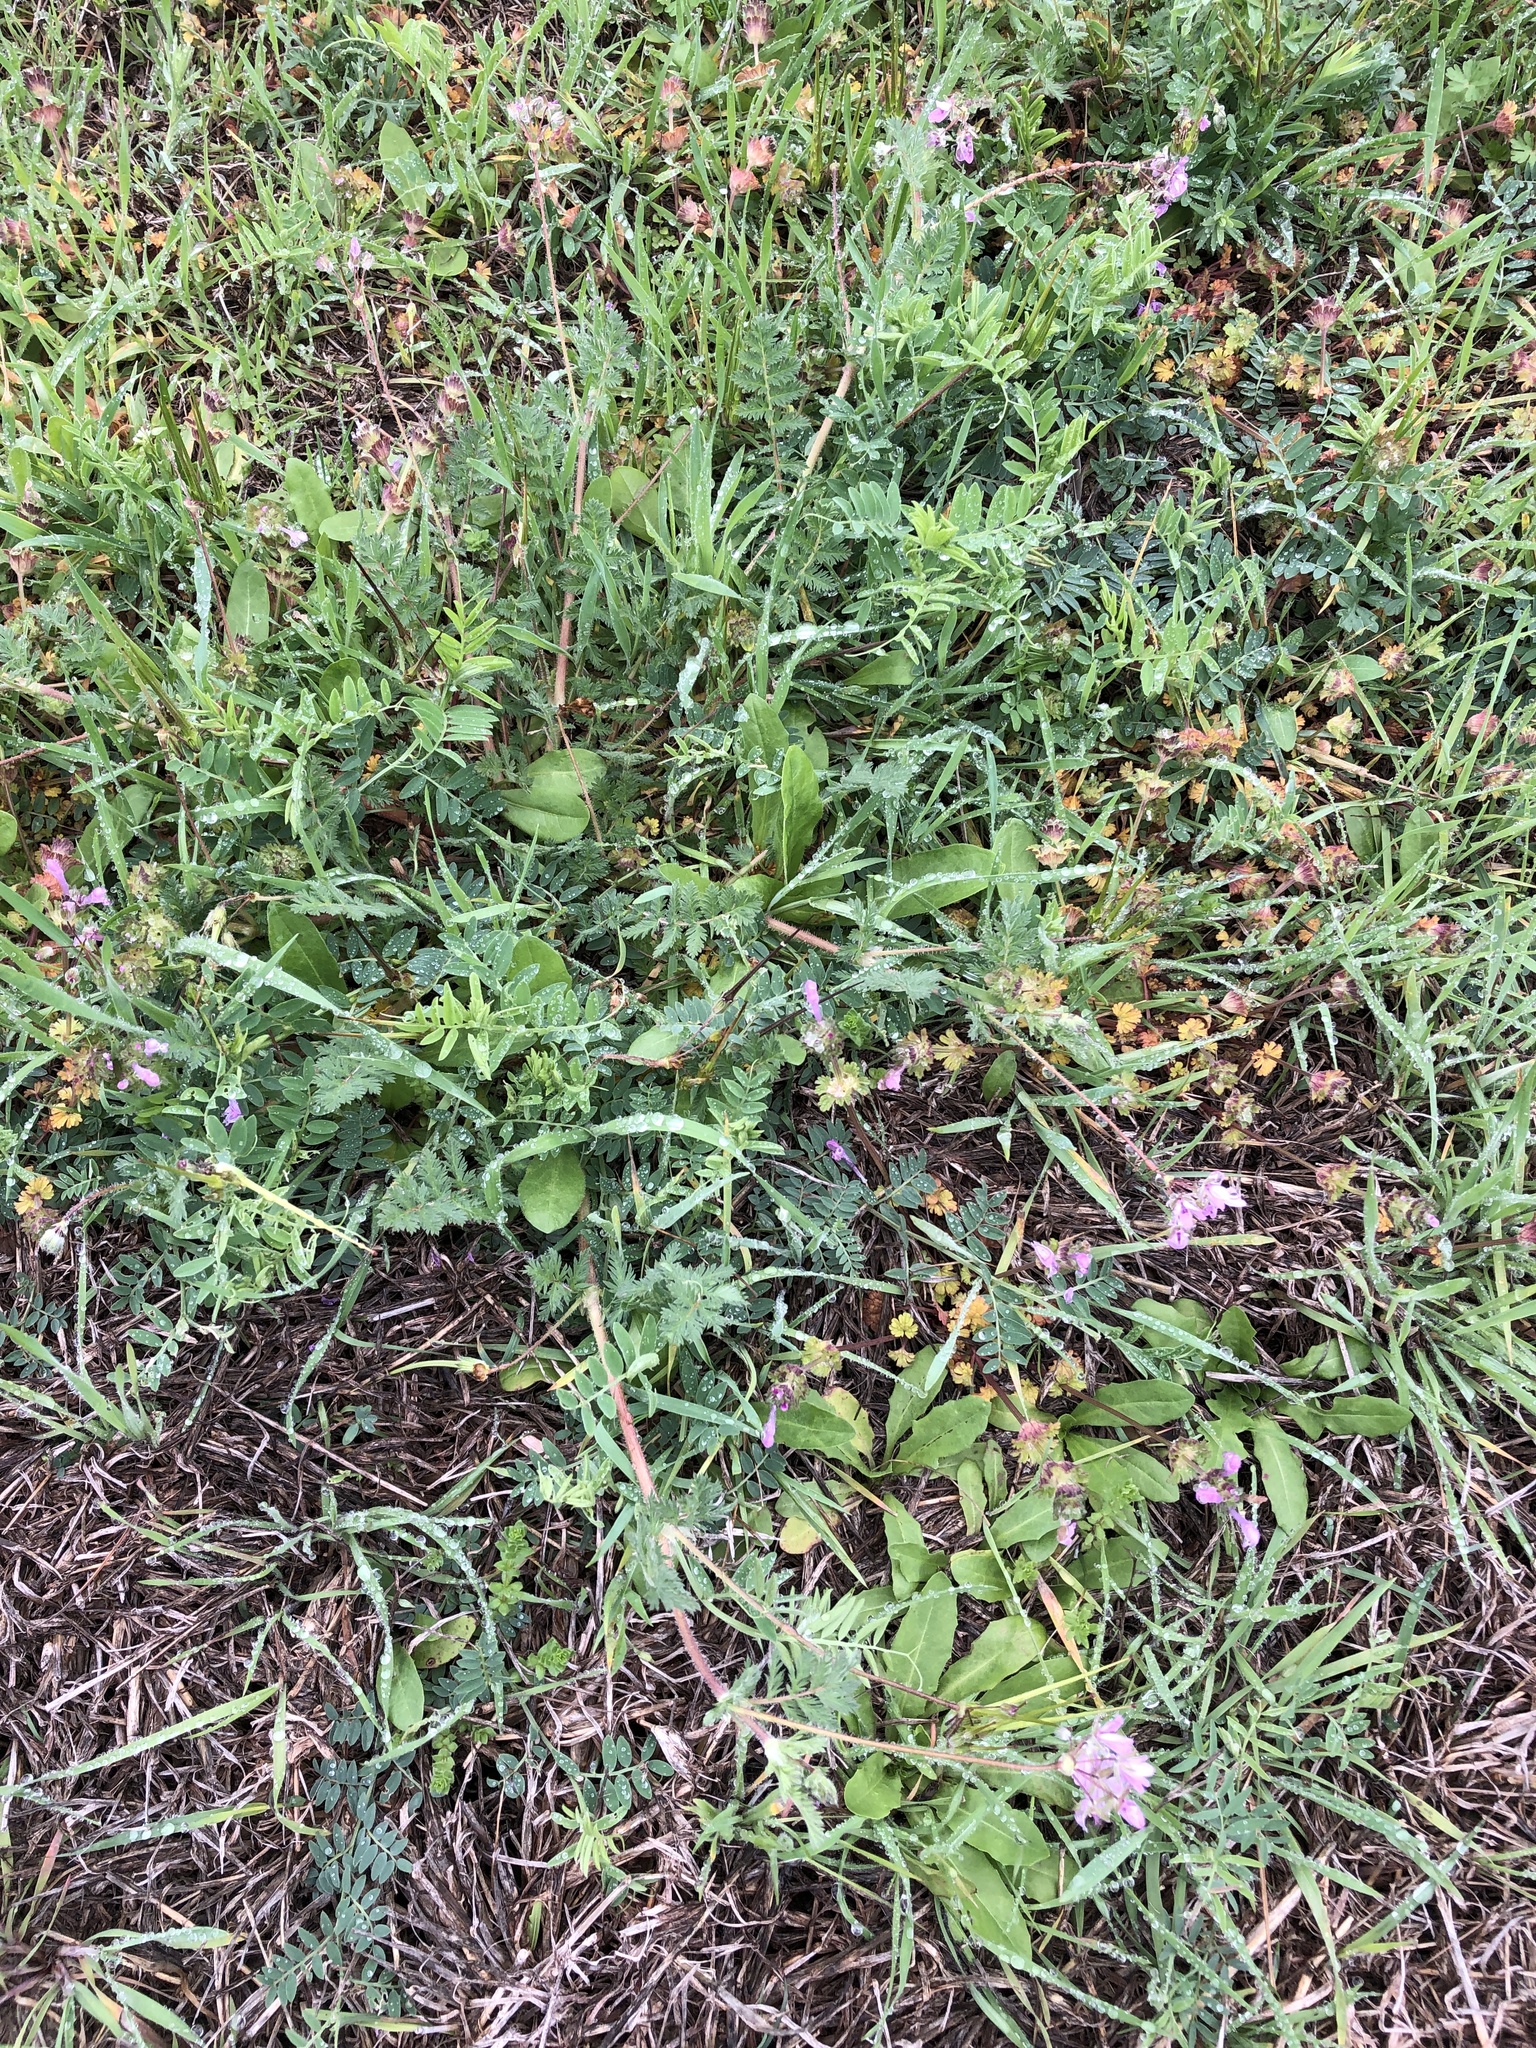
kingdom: Plantae
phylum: Tracheophyta
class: Magnoliopsida
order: Geraniales
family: Geraniaceae
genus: Erodium
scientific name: Erodium cicutarium
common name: Common stork's-bill
